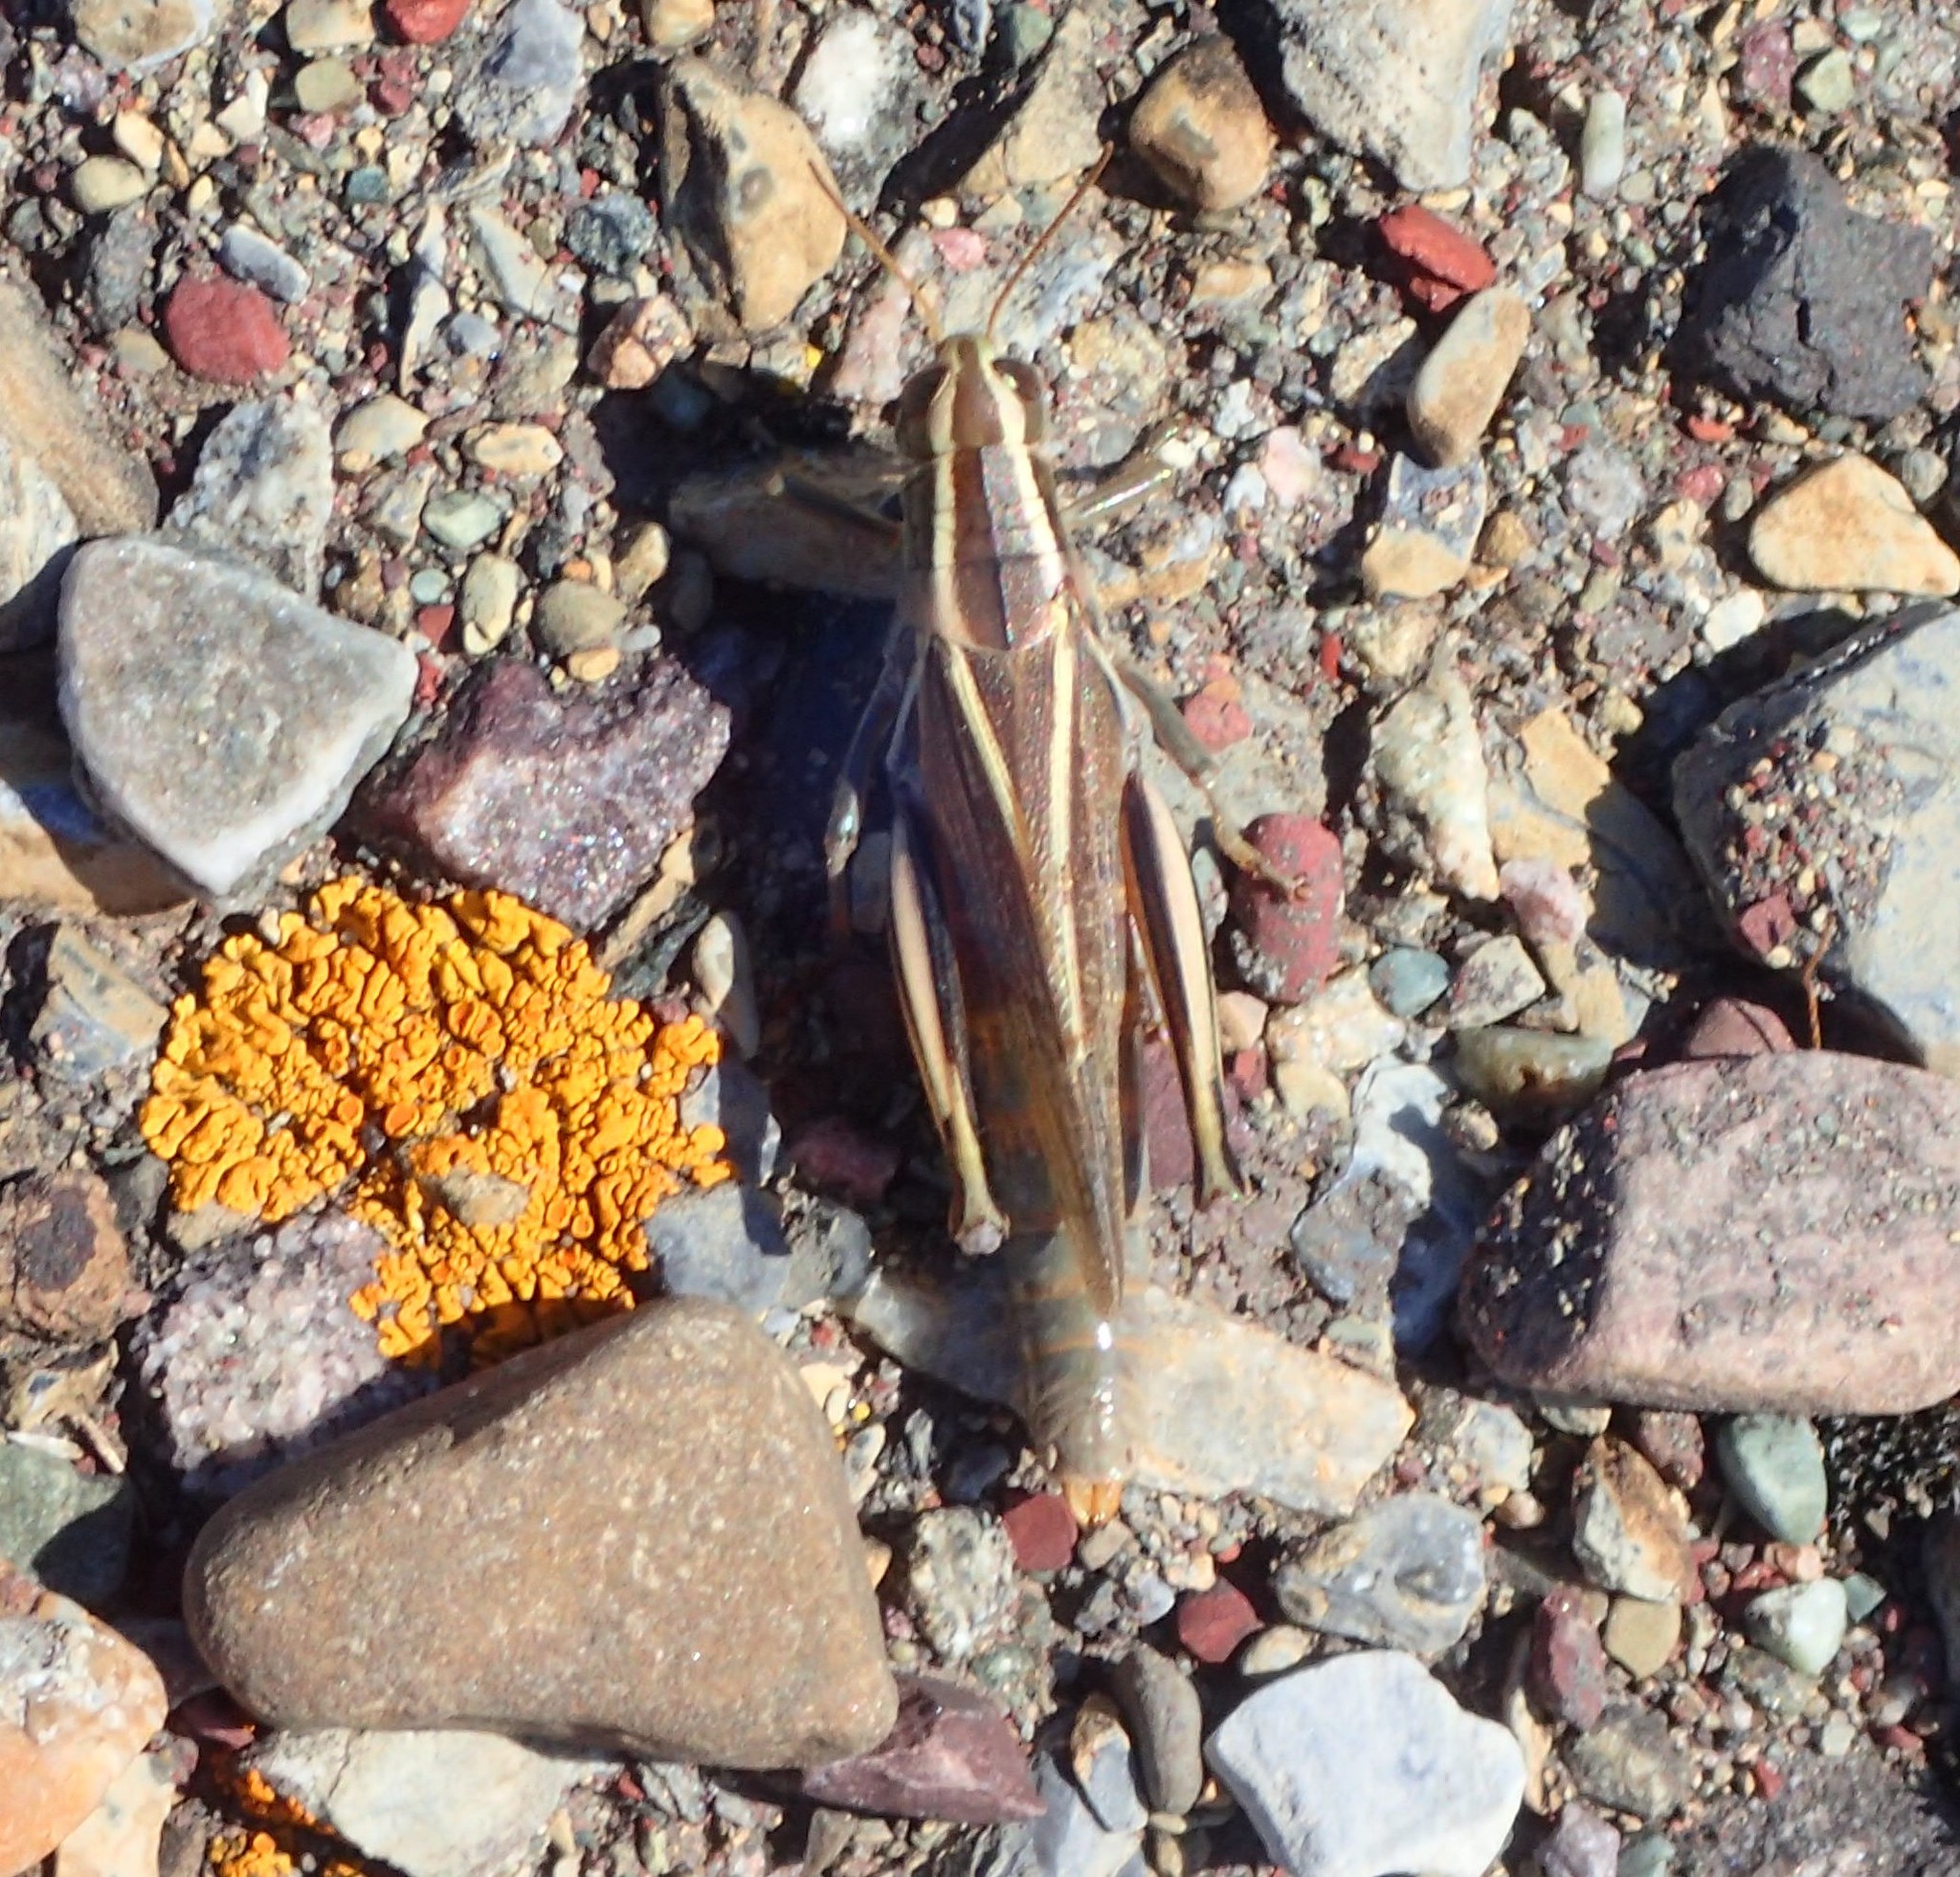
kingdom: Animalia
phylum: Arthropoda
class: Insecta
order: Orthoptera
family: Acrididae
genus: Melanoplus
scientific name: Melanoplus bivittatus
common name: Two-striped grasshopper
